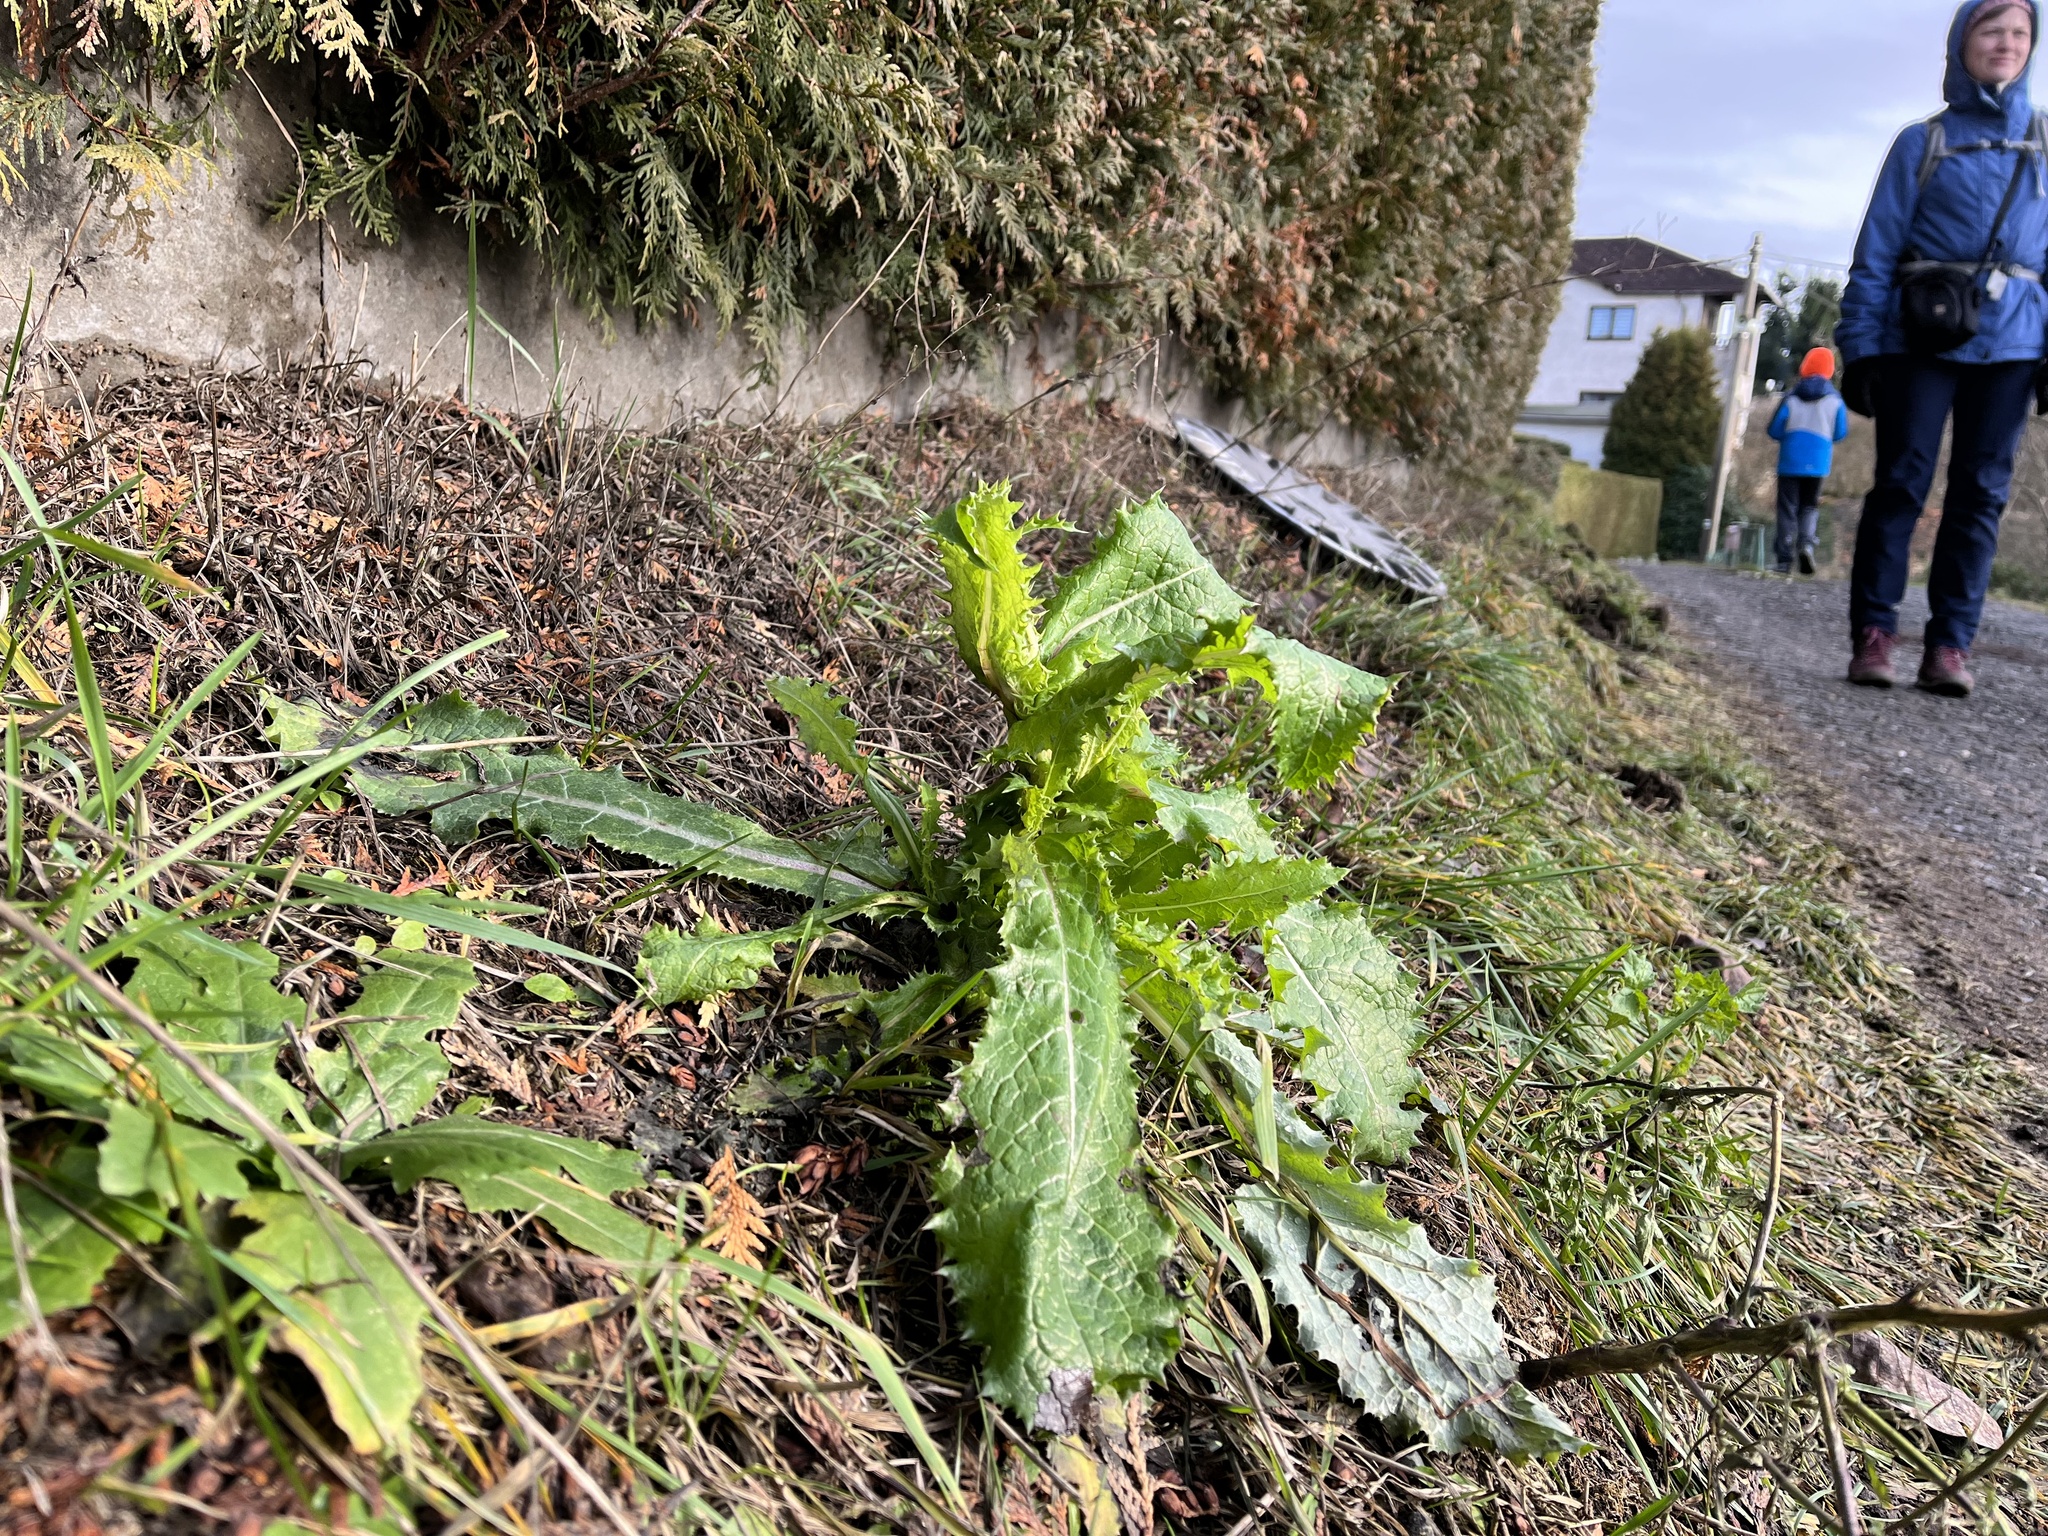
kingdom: Plantae
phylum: Tracheophyta
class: Magnoliopsida
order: Asterales
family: Asteraceae
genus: Sonchus
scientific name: Sonchus asper
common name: Prickly sow-thistle
